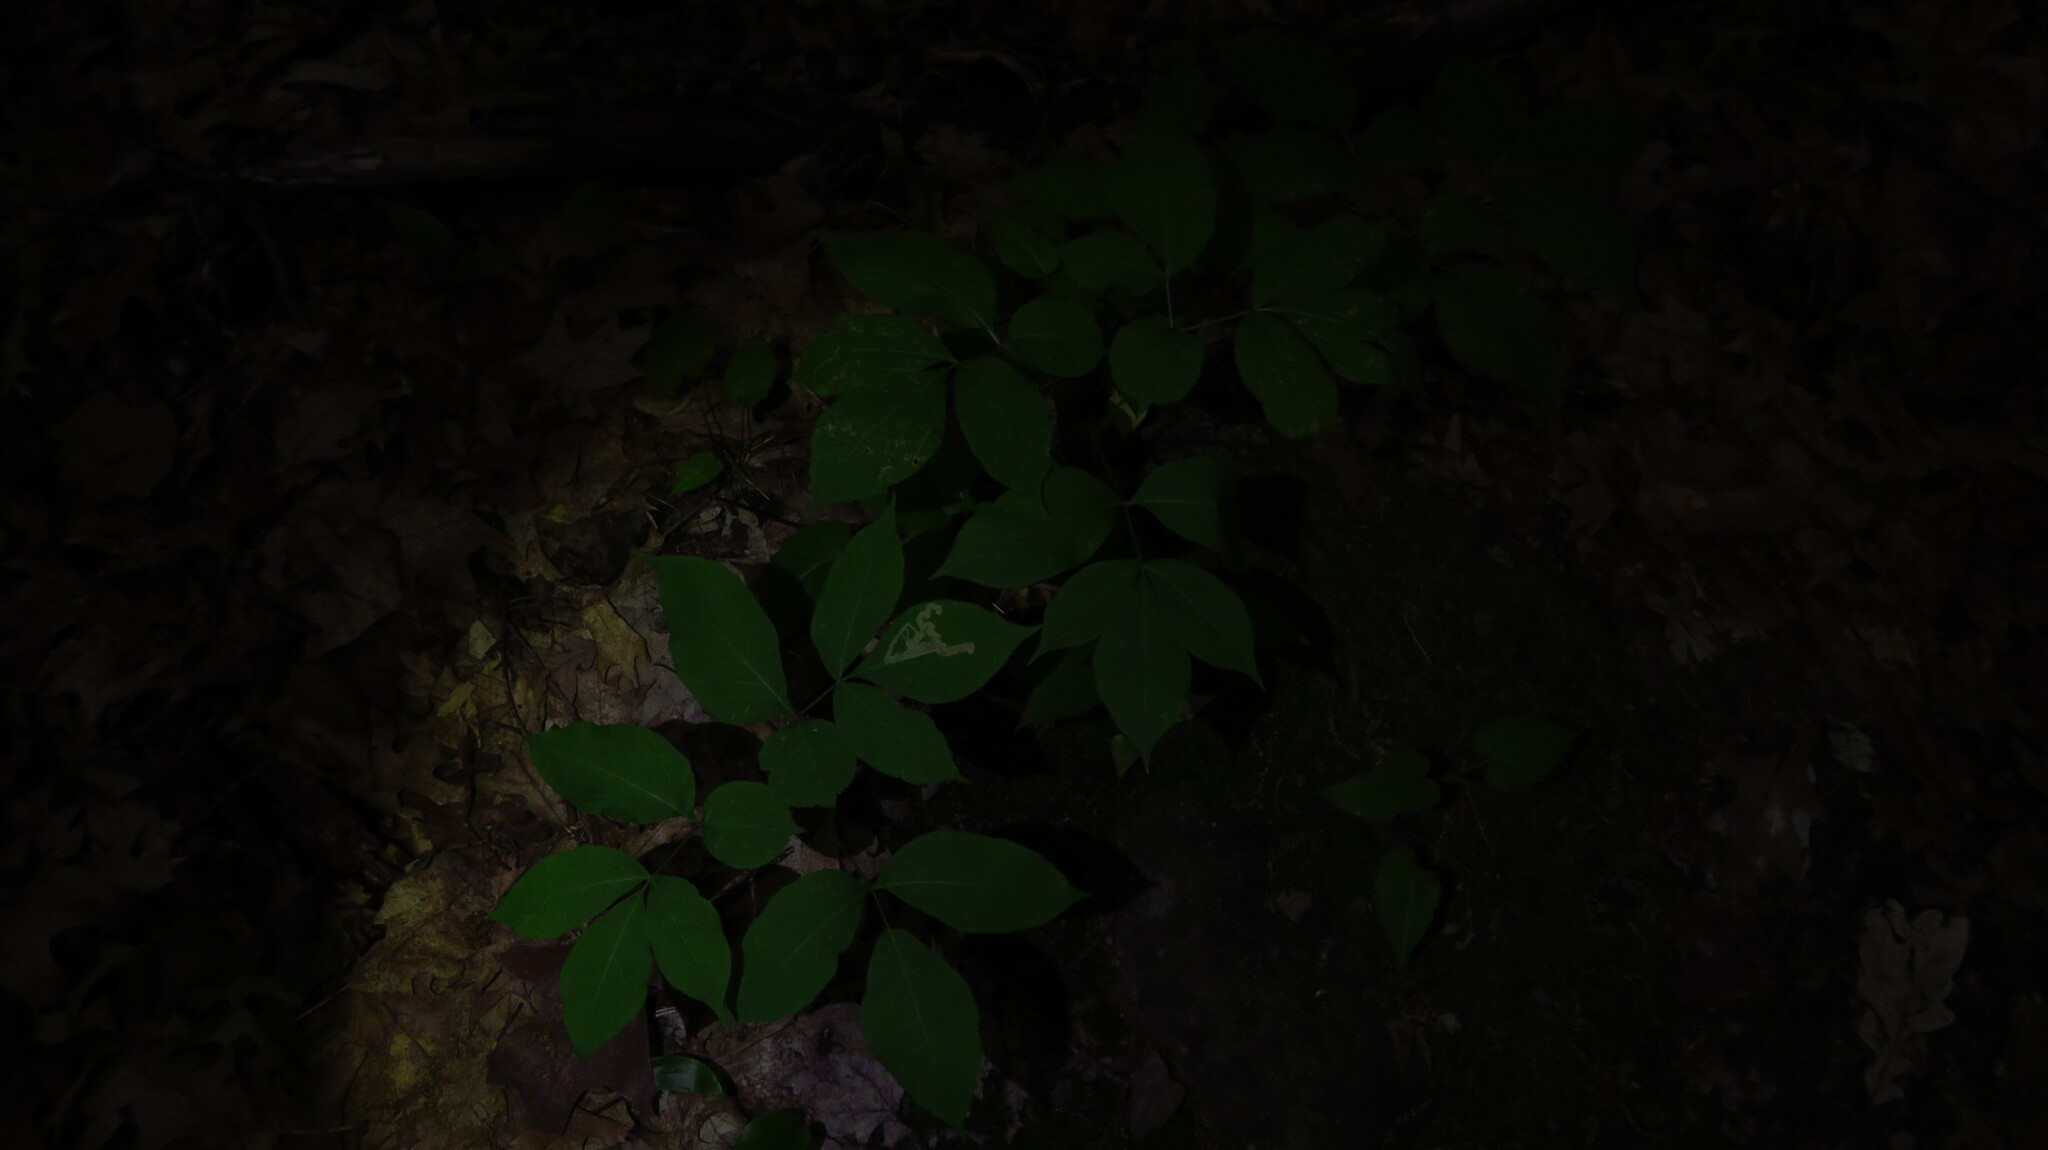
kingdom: Animalia
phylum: Arthropoda
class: Insecta
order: Diptera
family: Agromyzidae
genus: Phytomyza
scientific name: Phytomyza aralivora
